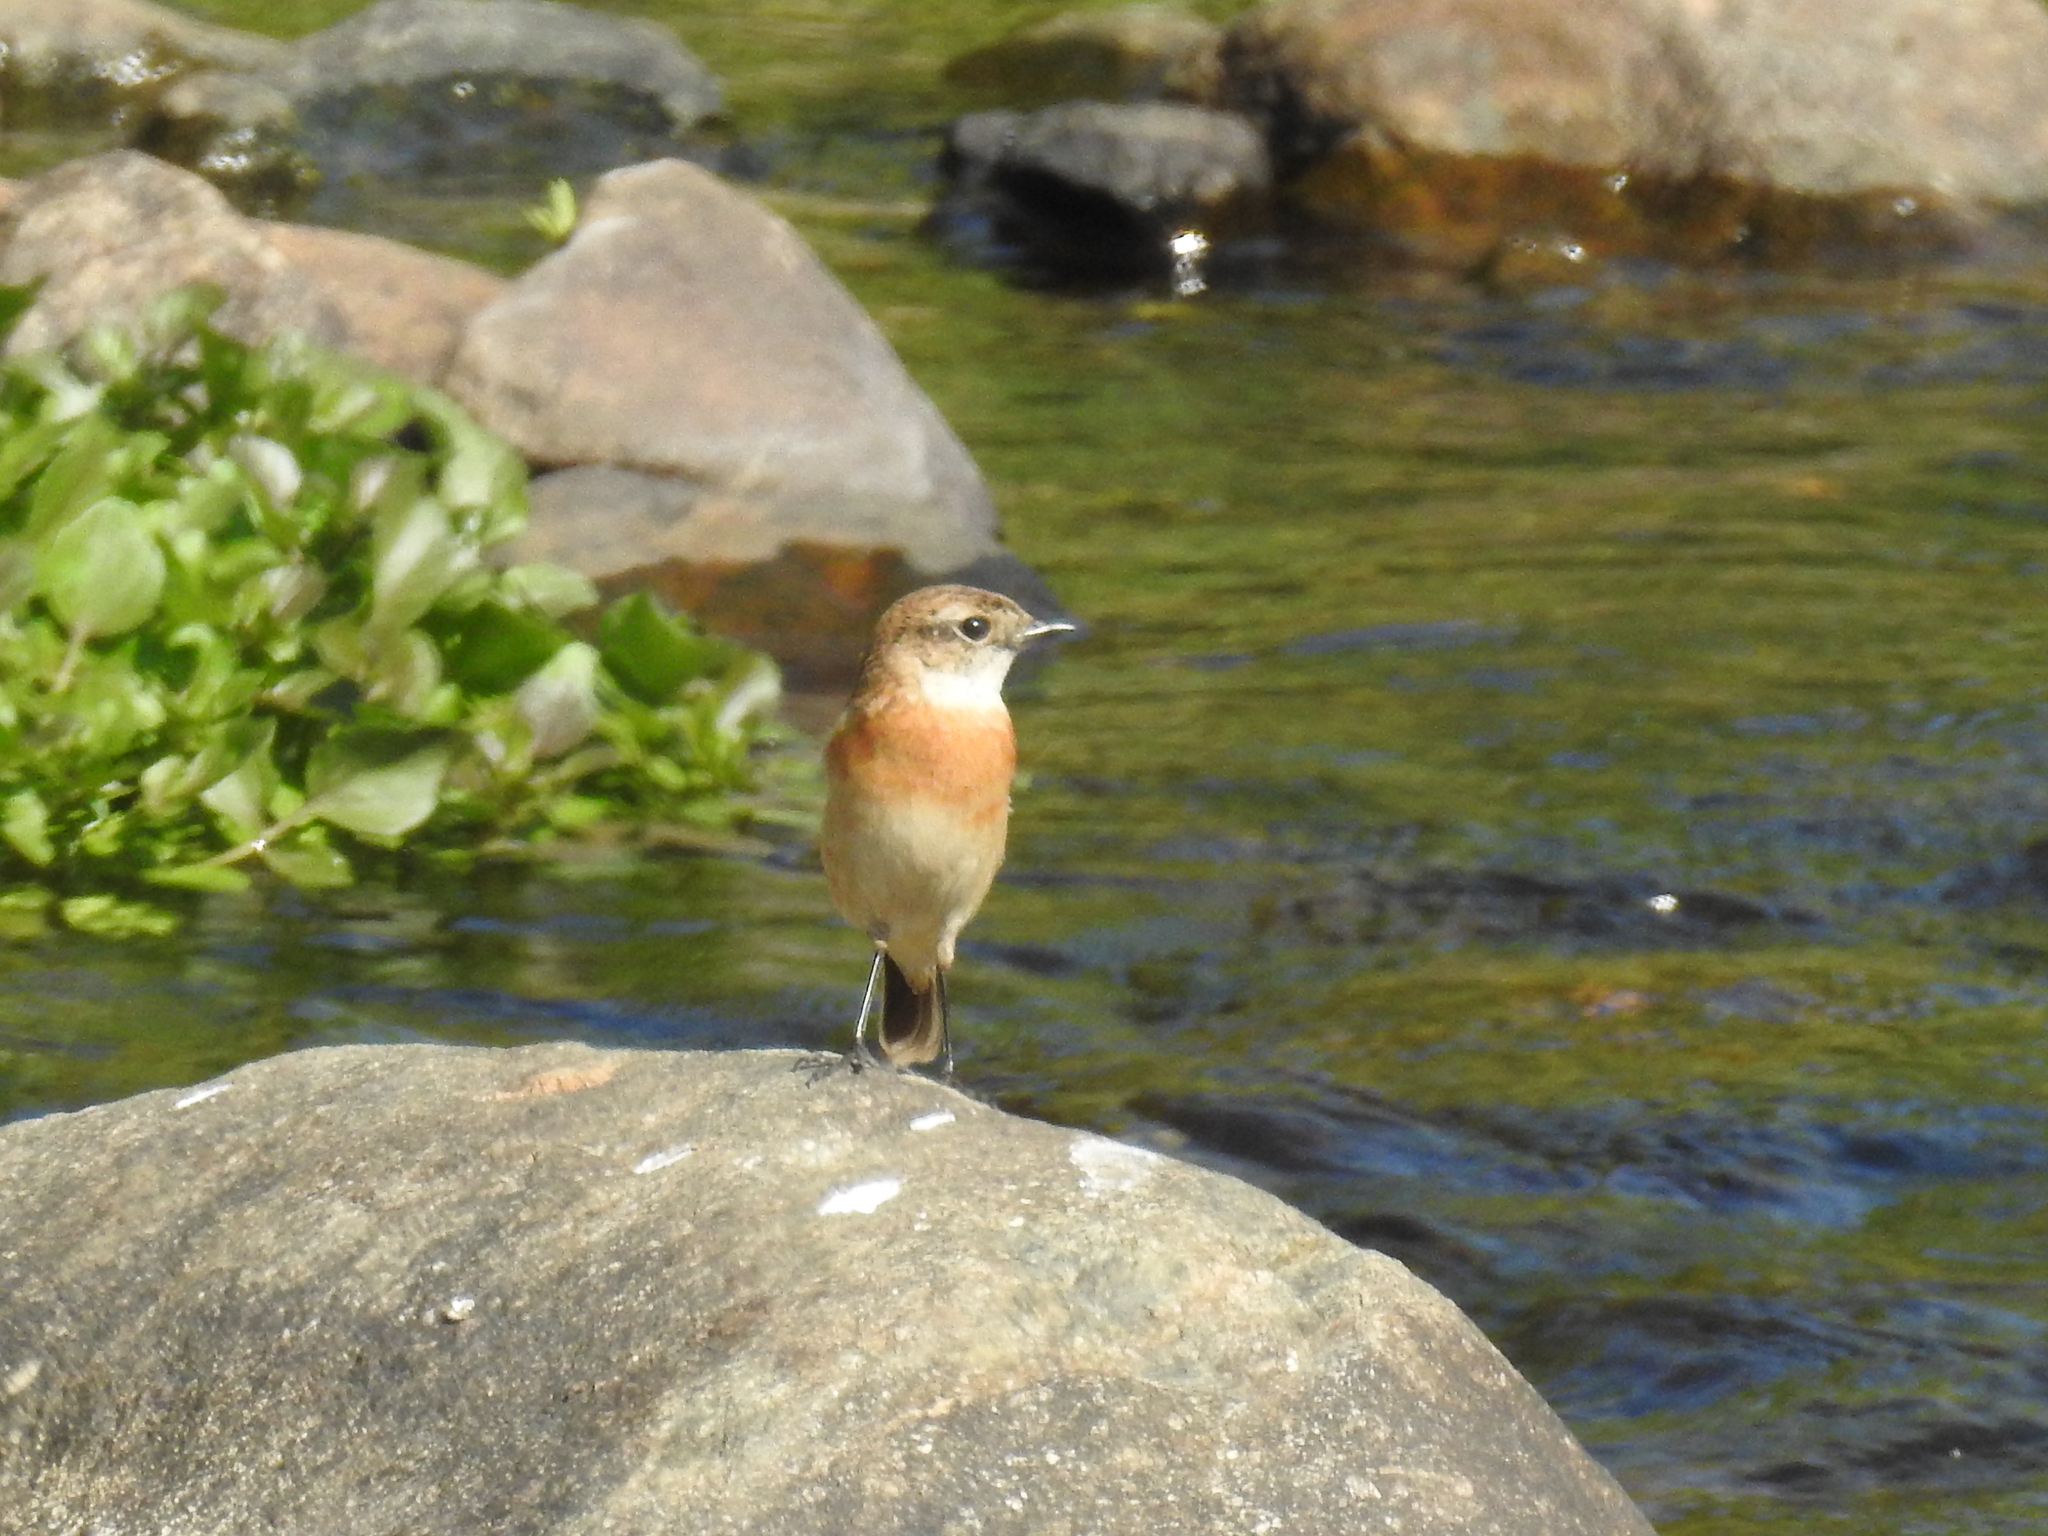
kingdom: Animalia
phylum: Chordata
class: Aves
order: Passeriformes
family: Muscicapidae
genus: Saxicola
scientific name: Saxicola stejnegeri
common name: Stejneger's stonechat
